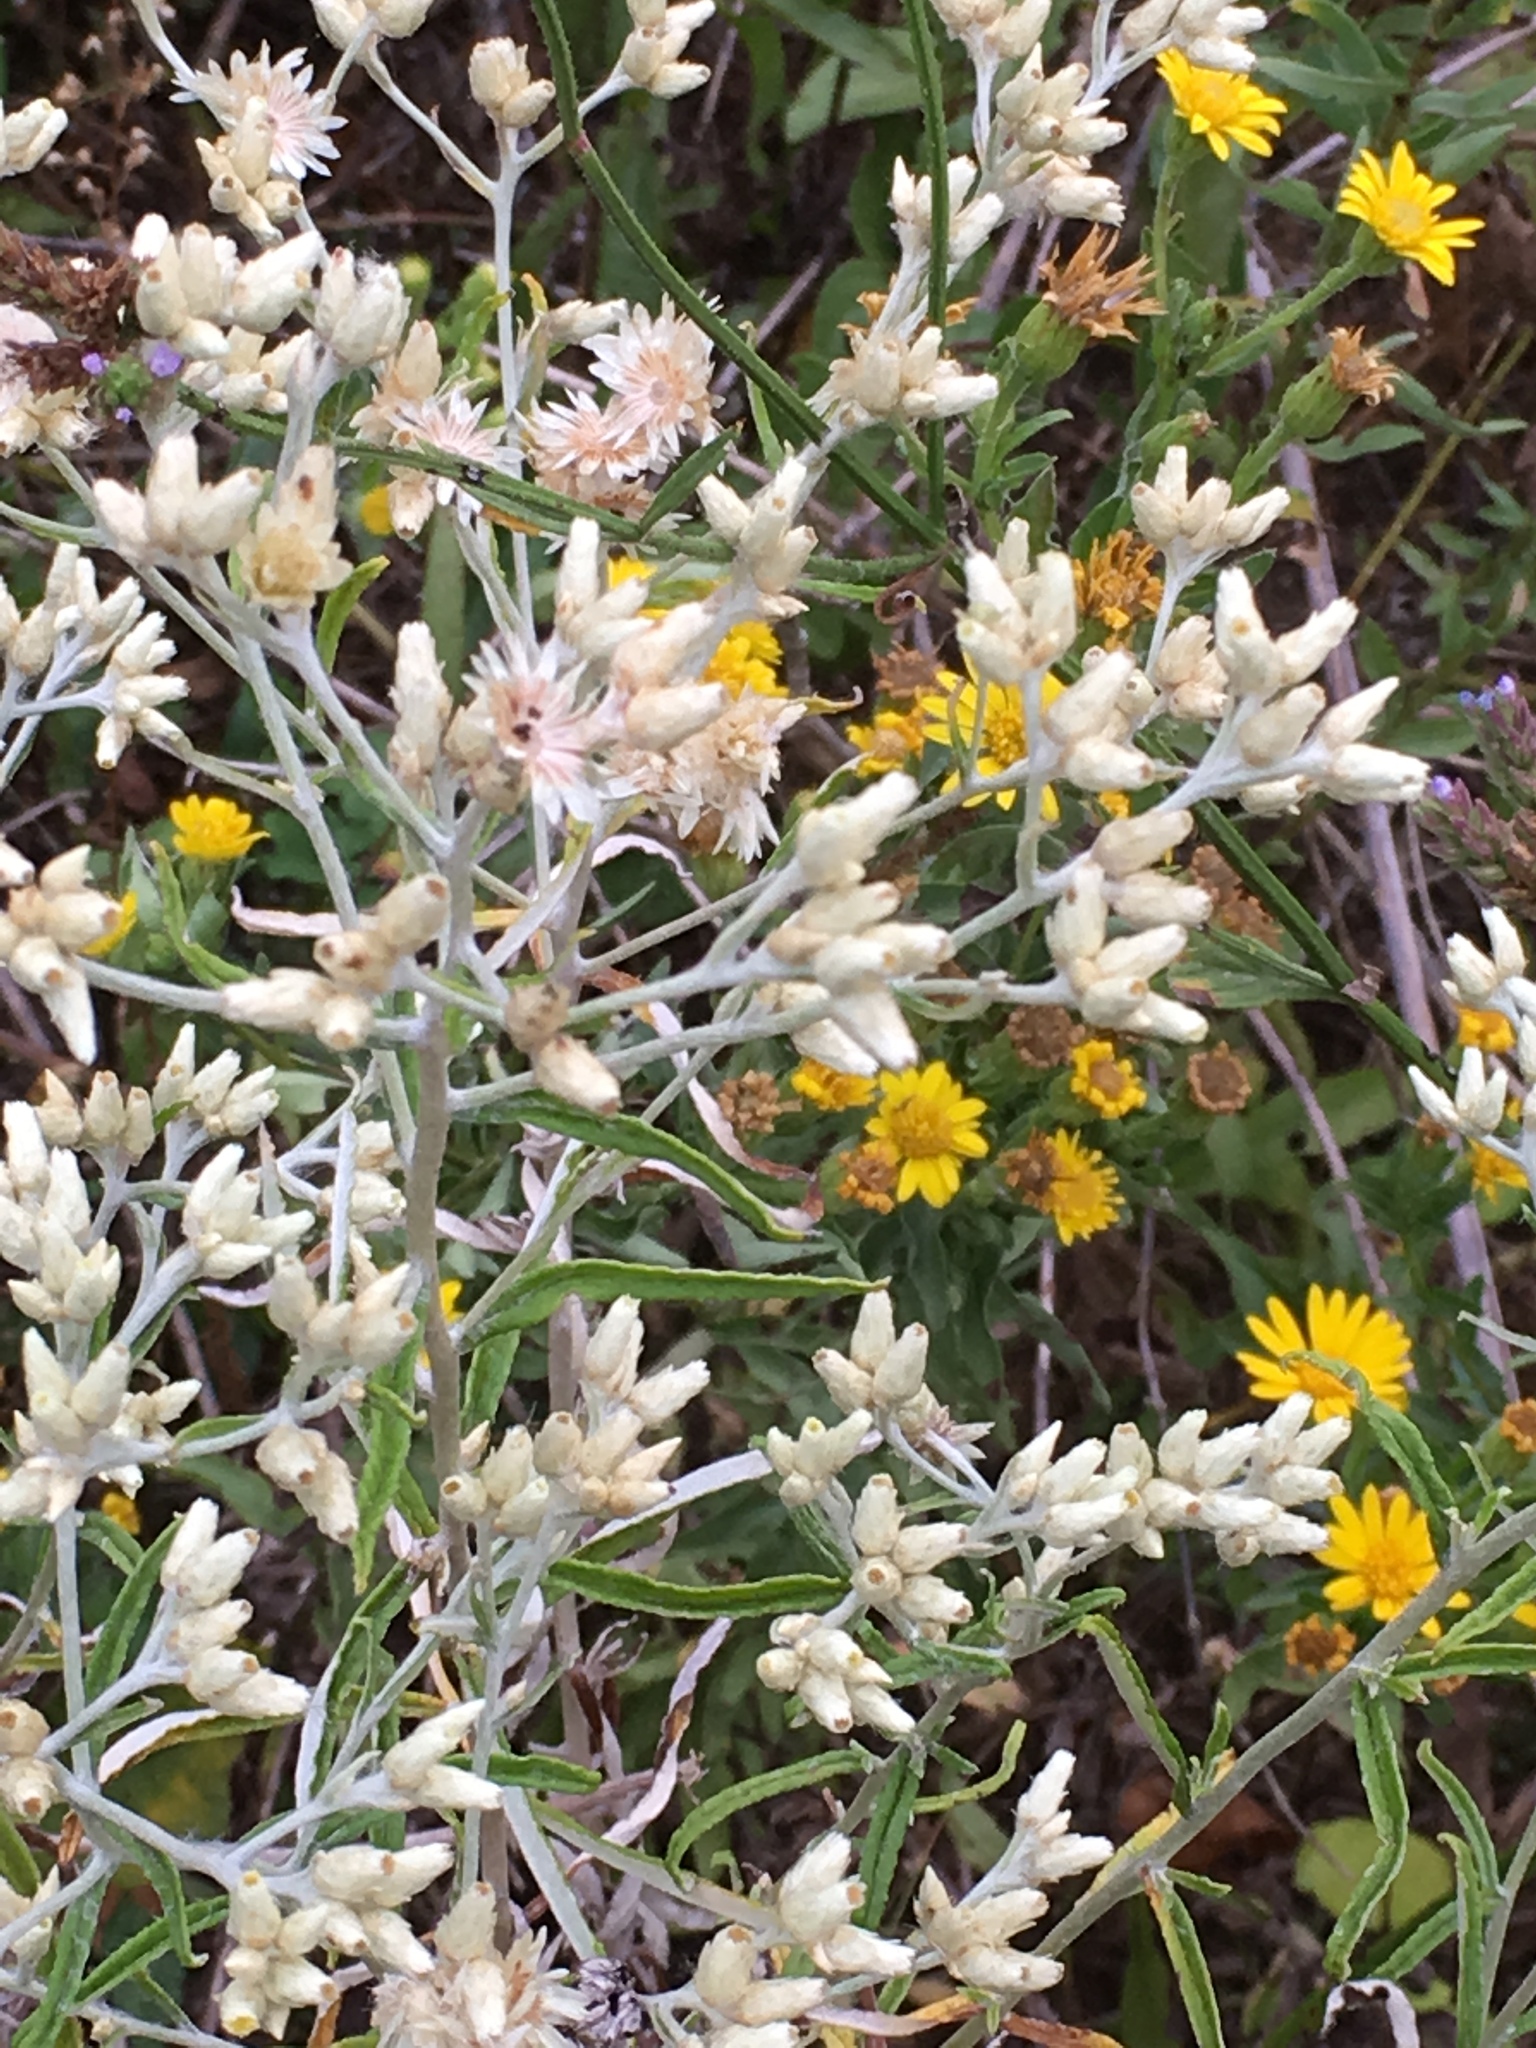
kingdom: Plantae
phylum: Tracheophyta
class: Magnoliopsida
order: Asterales
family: Asteraceae
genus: Pseudognaphalium
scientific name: Pseudognaphalium obtusifolium
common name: Eastern rabbit-tobacco
